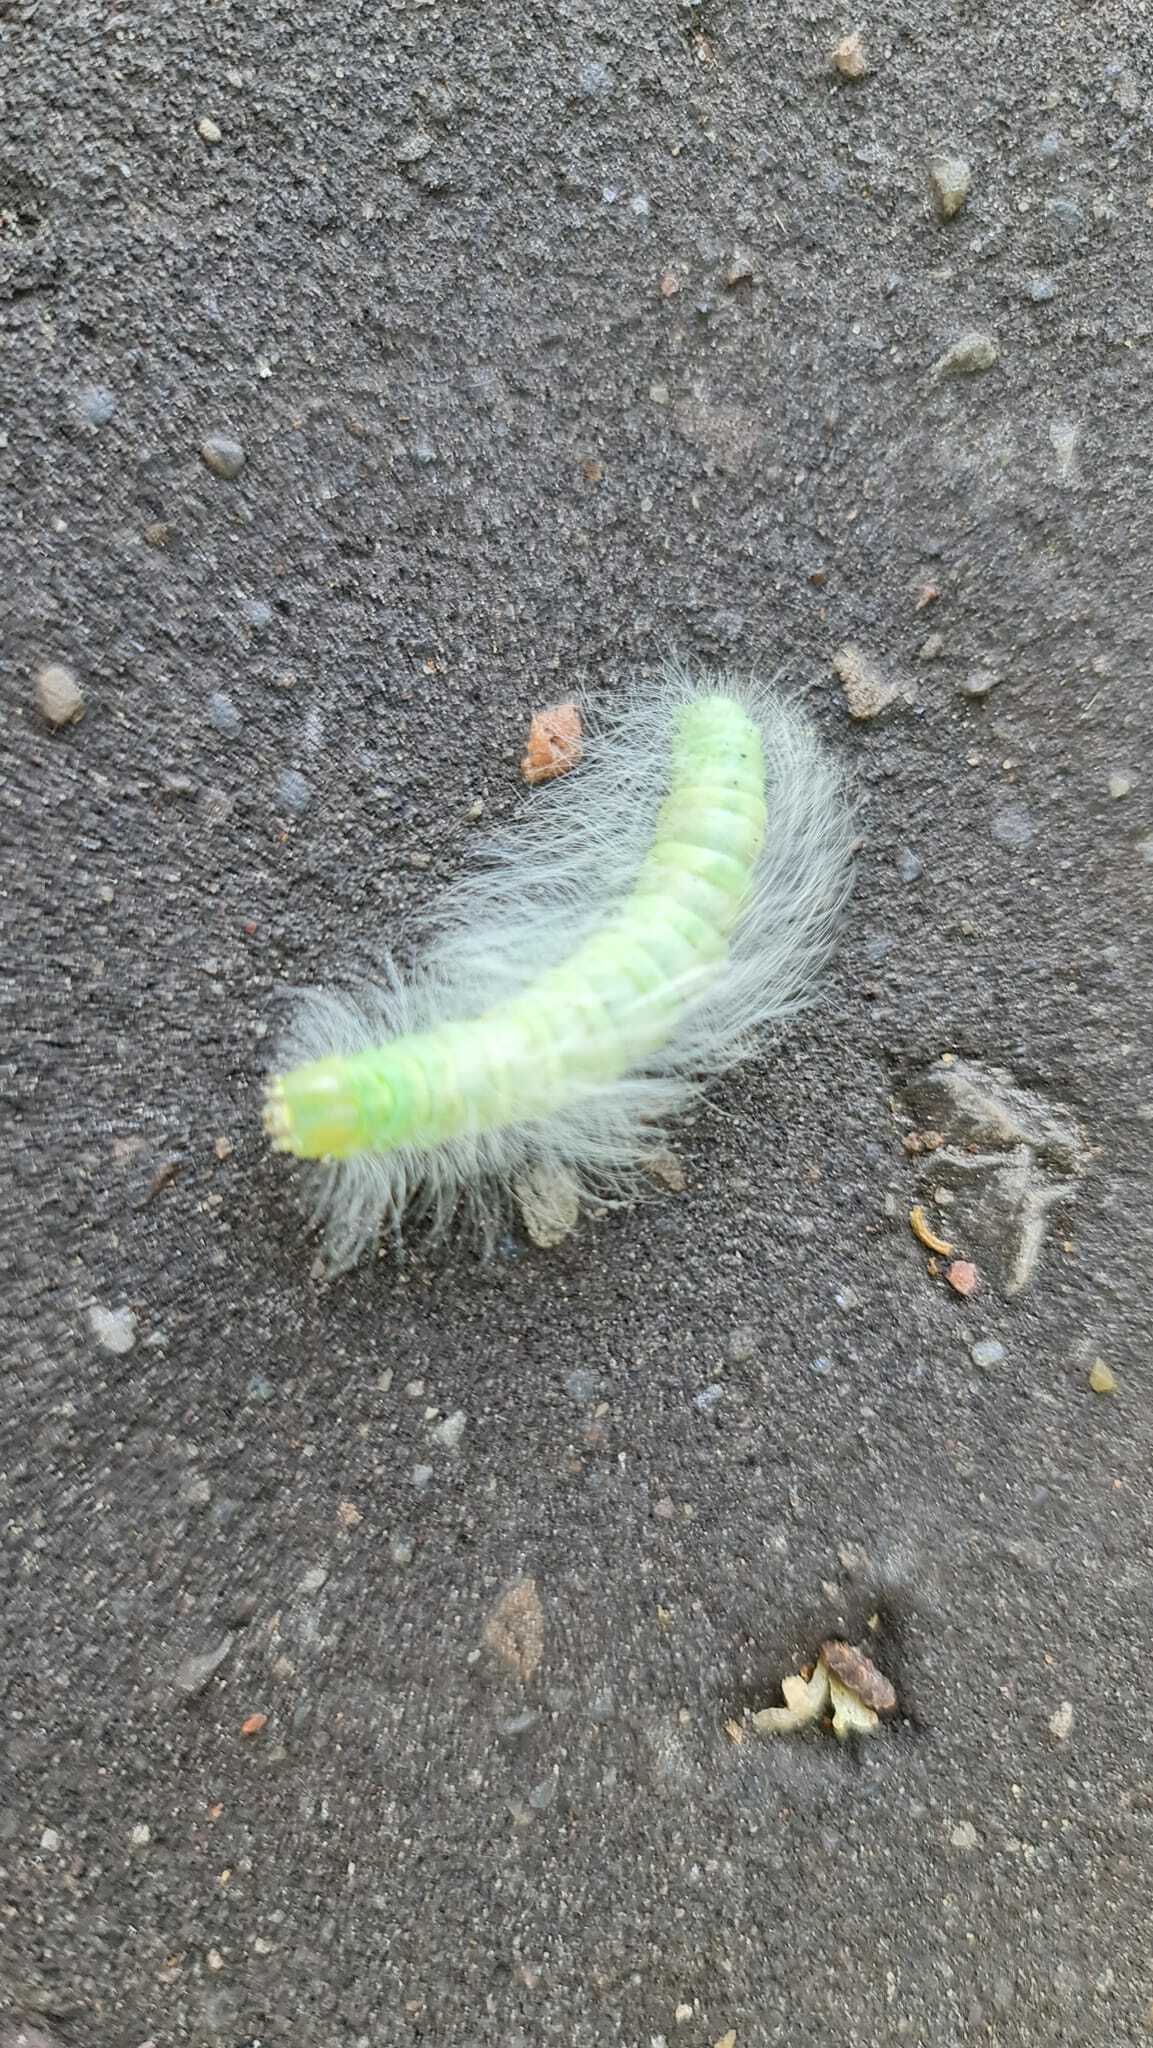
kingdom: Animalia
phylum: Arthropoda
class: Insecta
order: Lepidoptera
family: Noctuidae
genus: Acronicta
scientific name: Acronicta leporina
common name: Miller
